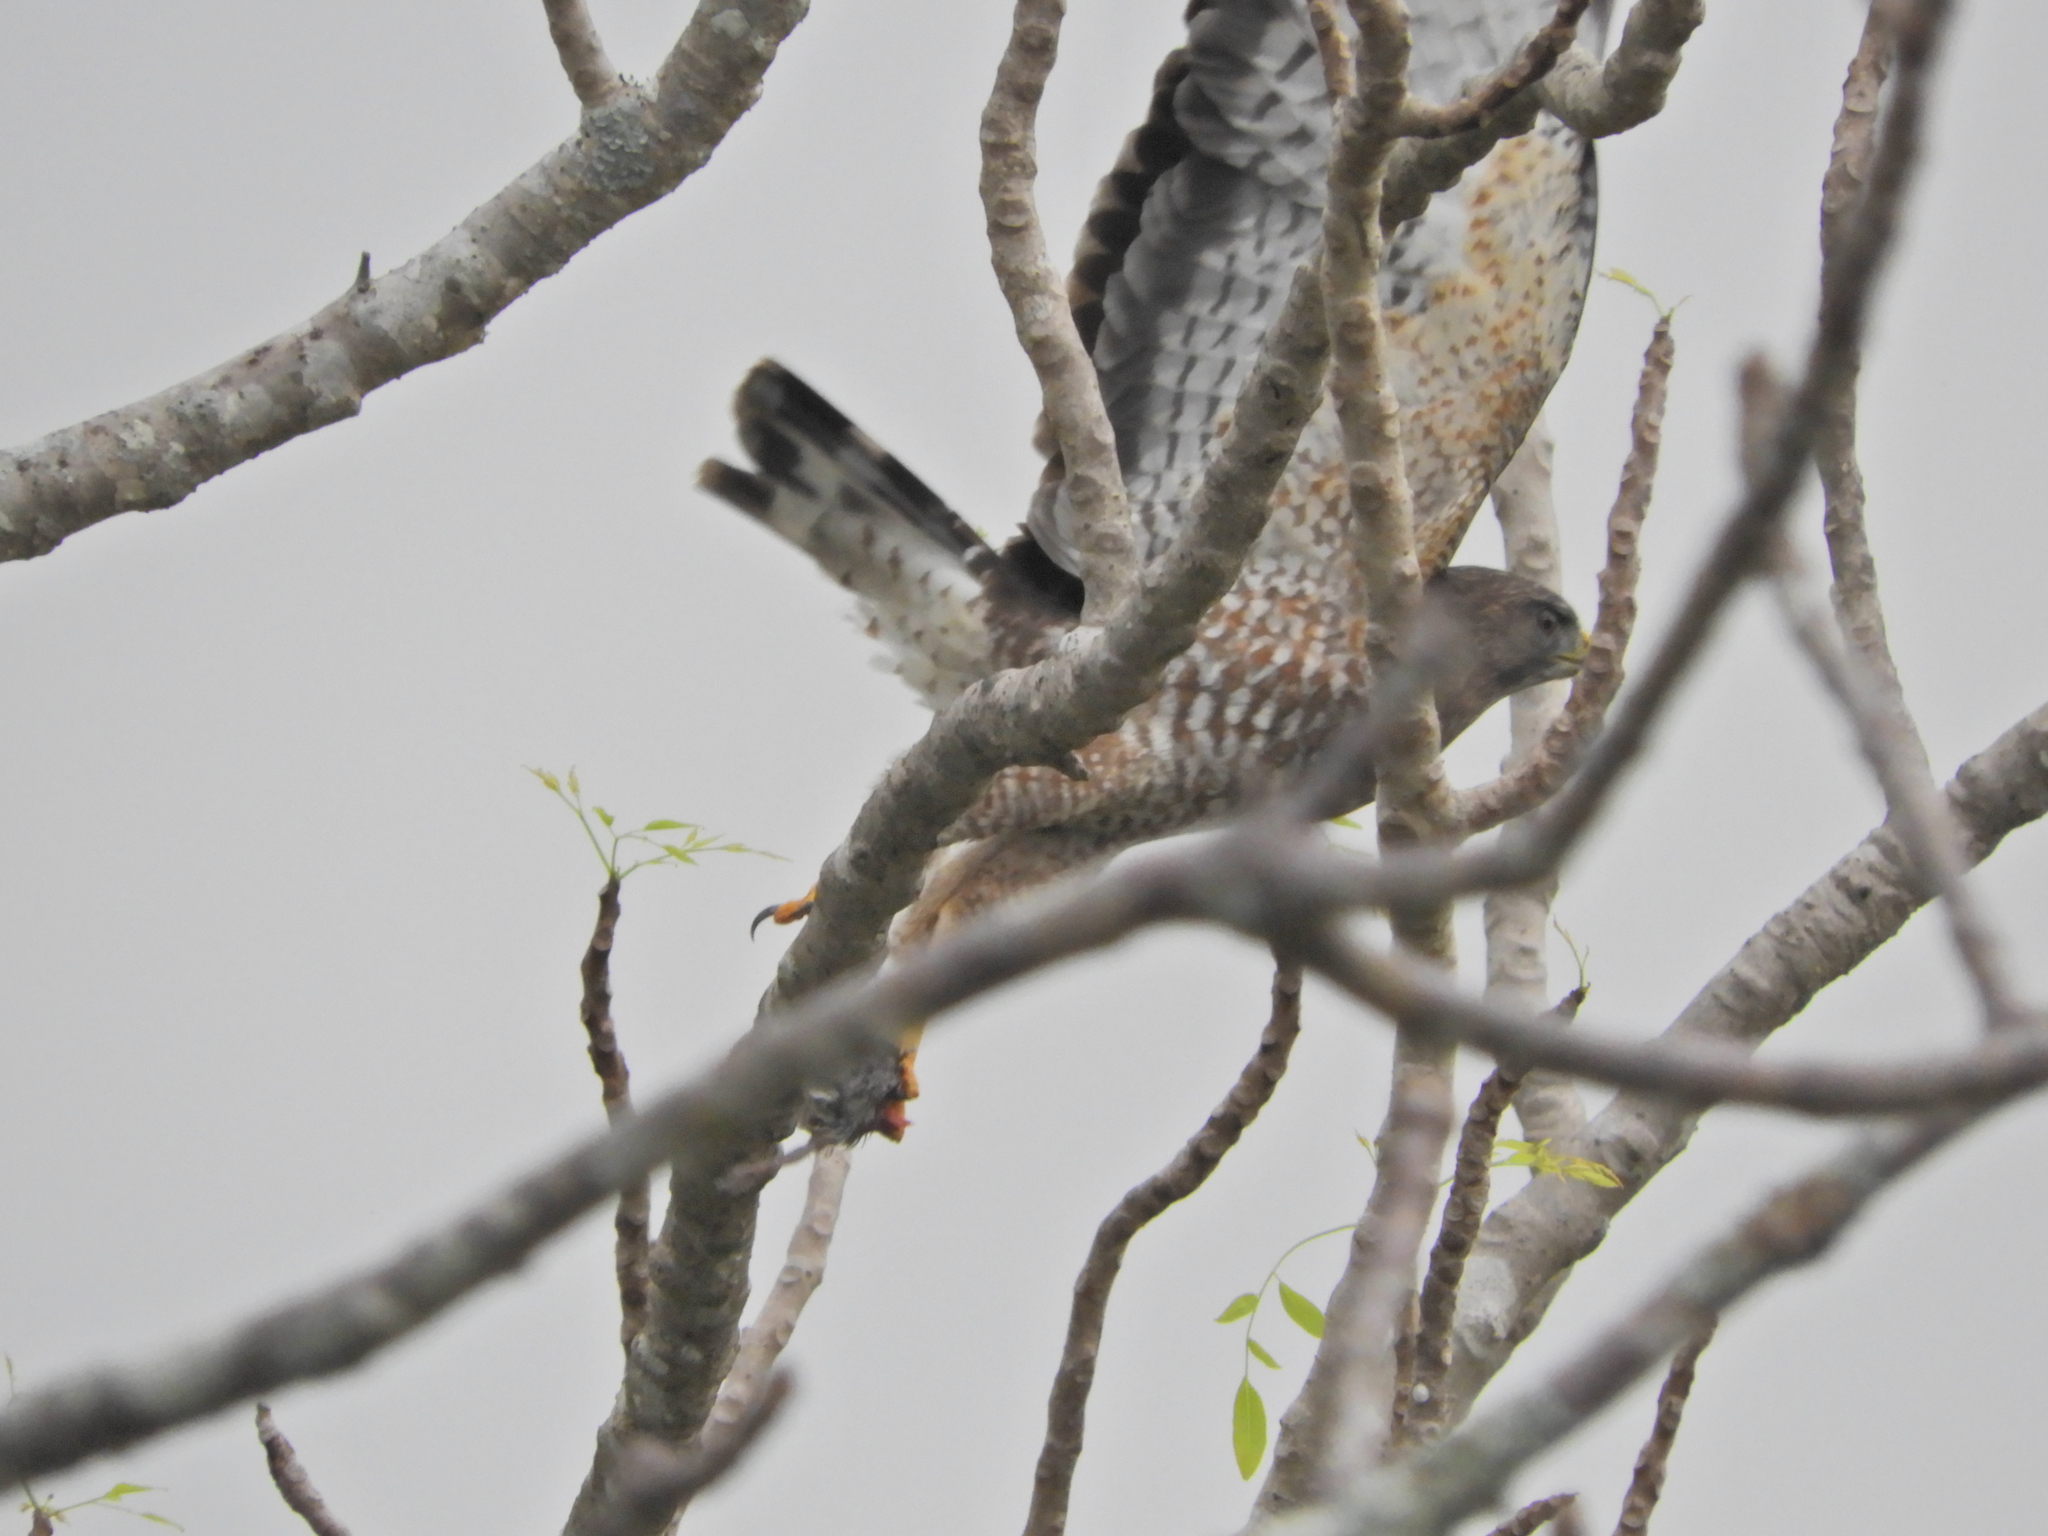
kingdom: Animalia
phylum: Chordata
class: Aves
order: Accipitriformes
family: Accipitridae
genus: Buteo
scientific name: Buteo platypterus
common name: Broad-winged hawk
